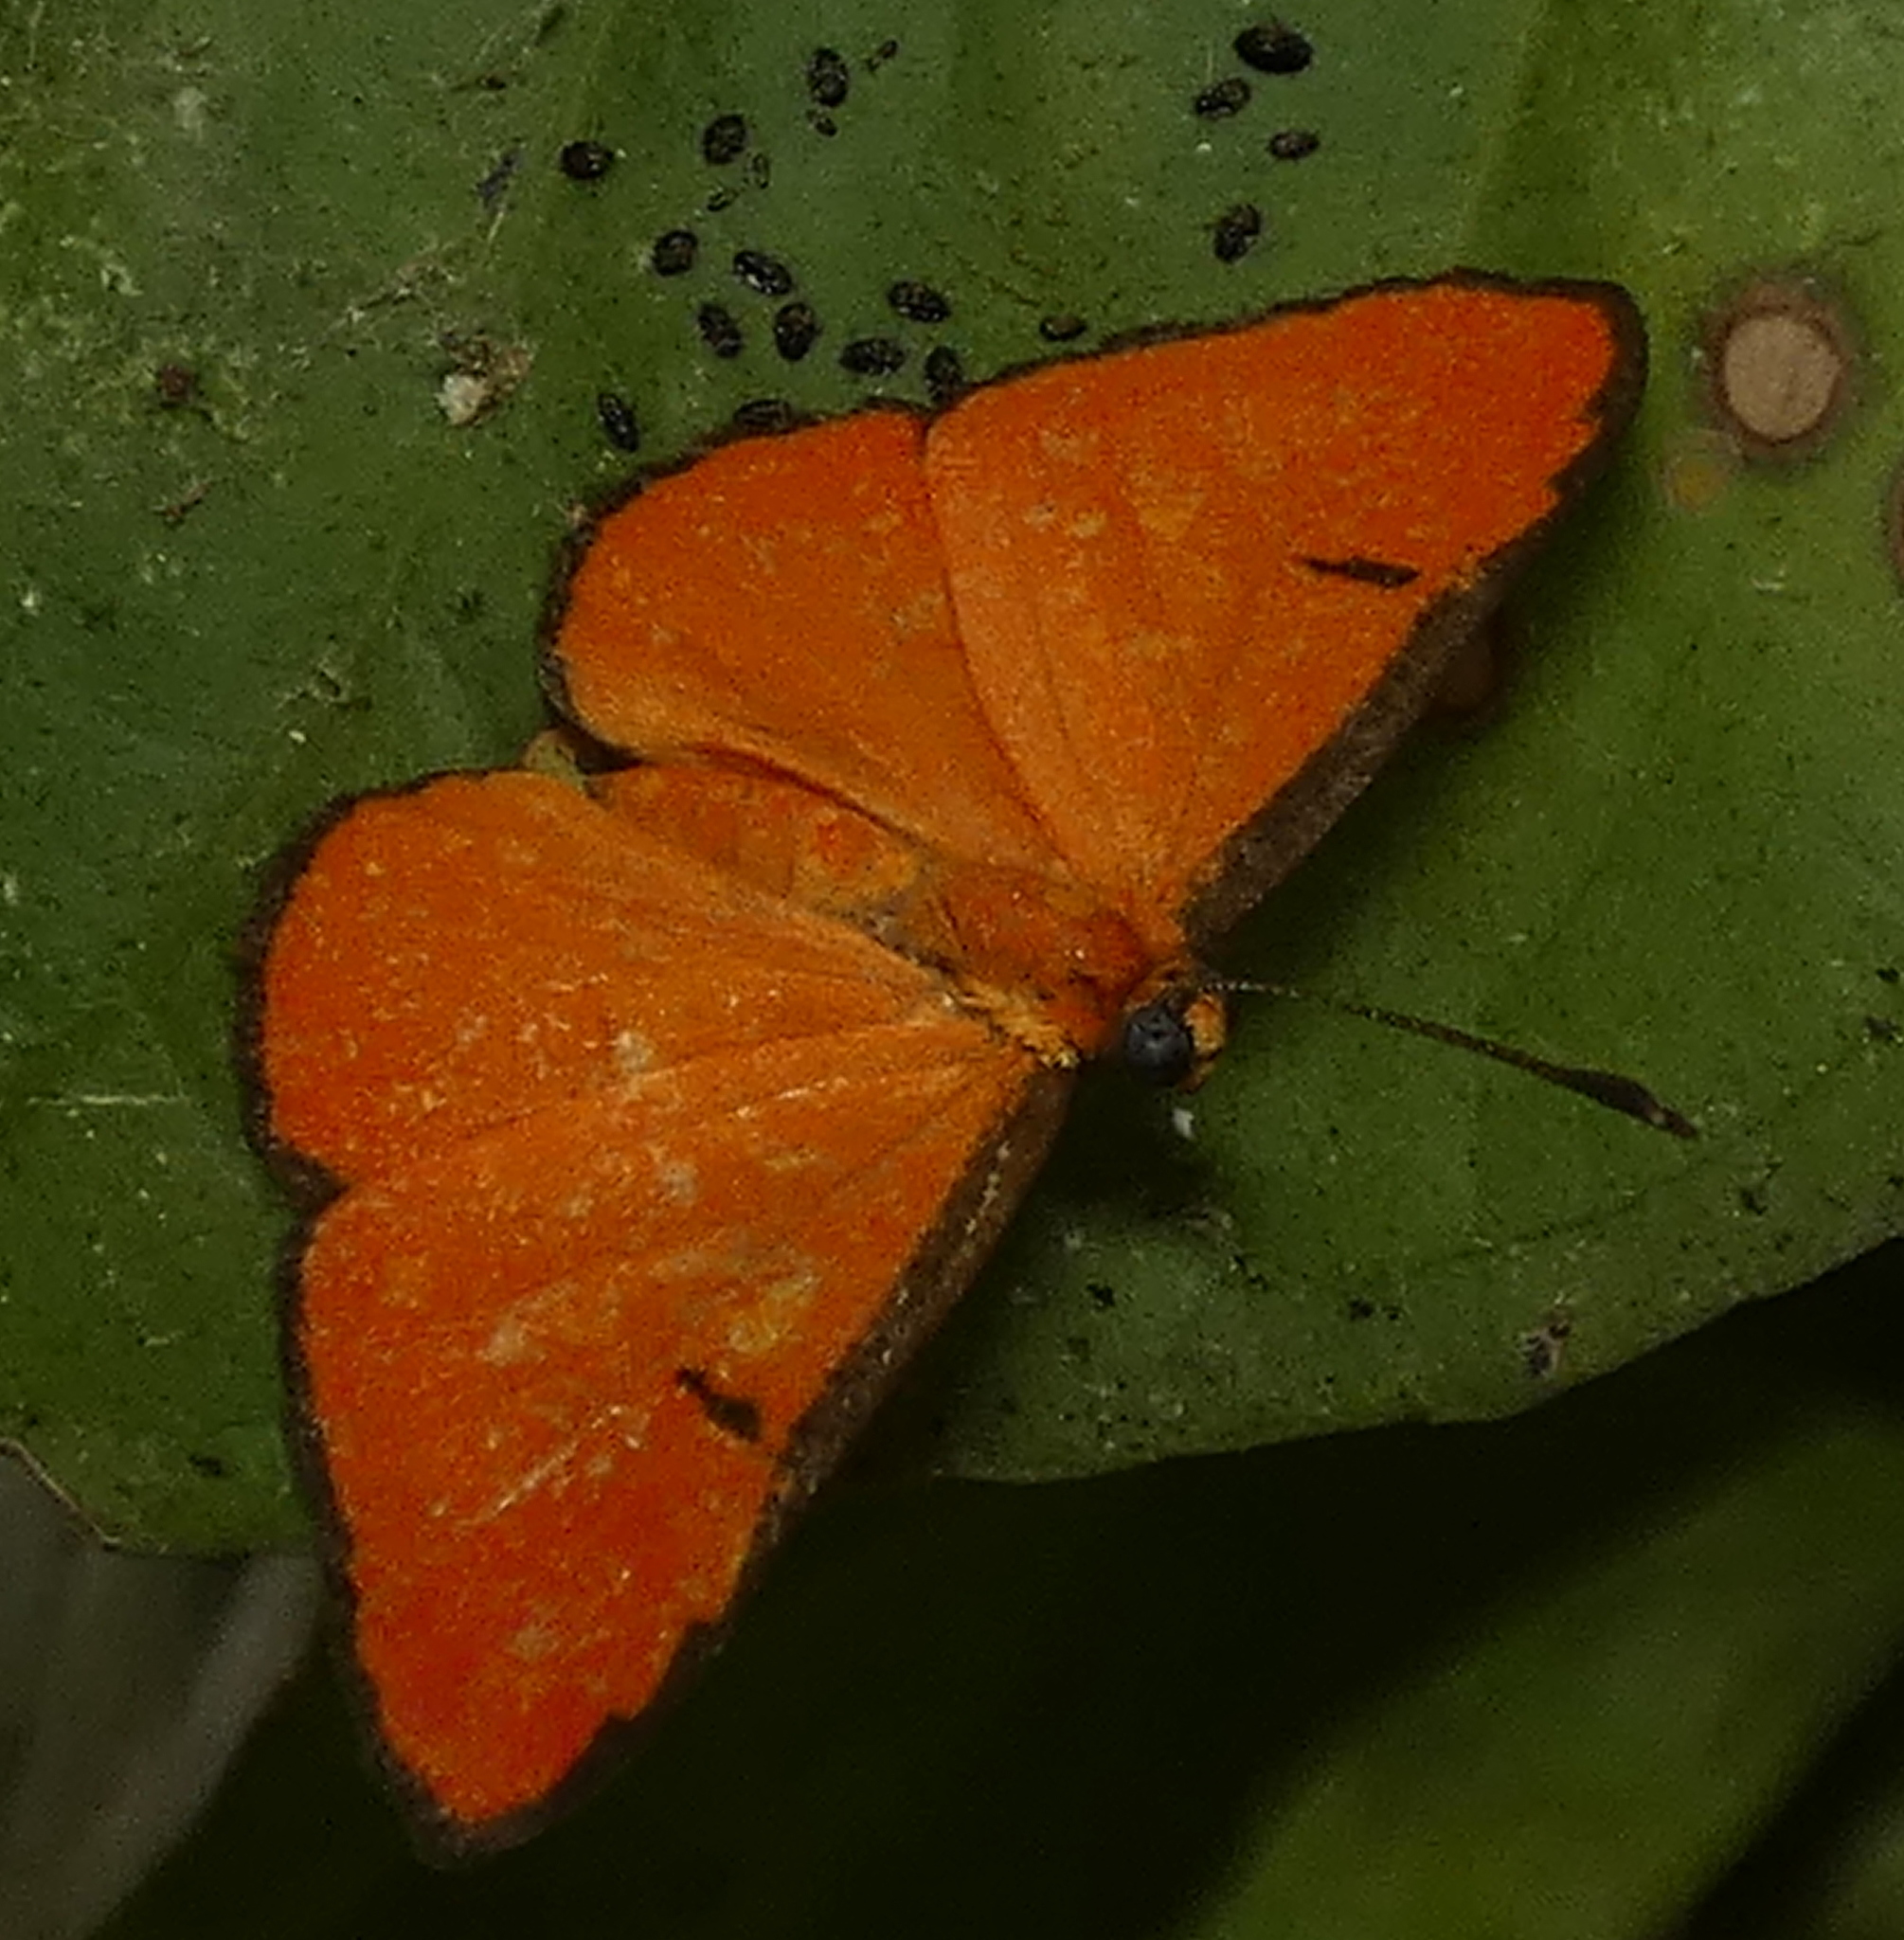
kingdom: Animalia
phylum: Arthropoda
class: Insecta
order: Lepidoptera
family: Lycaenidae
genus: Mesene
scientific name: Mesene phareus
